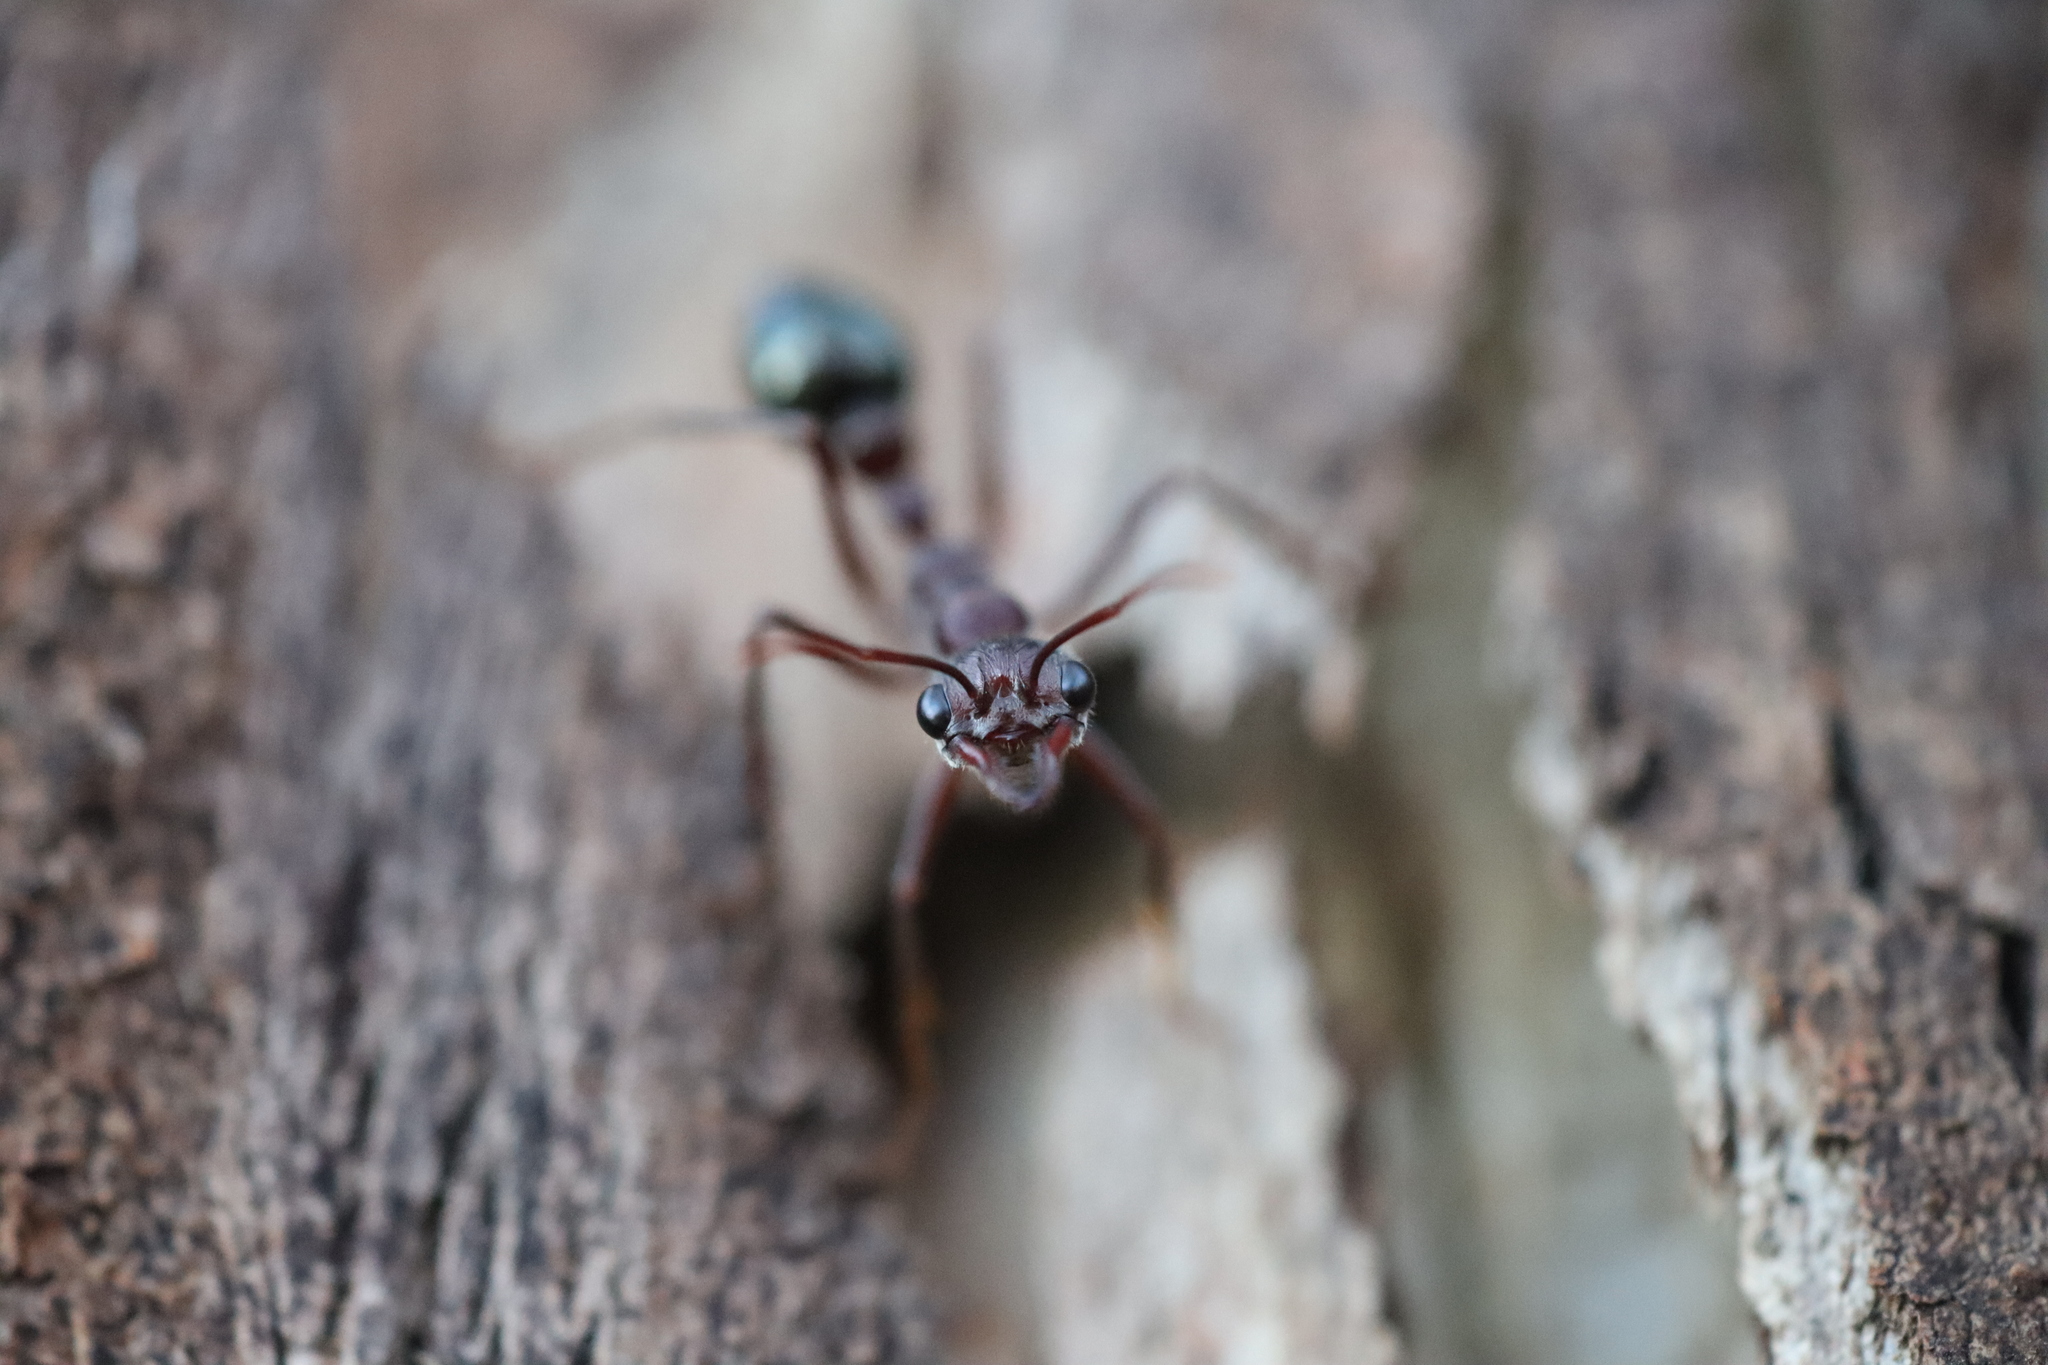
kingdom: Animalia
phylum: Arthropoda
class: Insecta
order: Hymenoptera
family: Formicidae
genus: Myrmecia
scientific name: Myrmecia forficata
